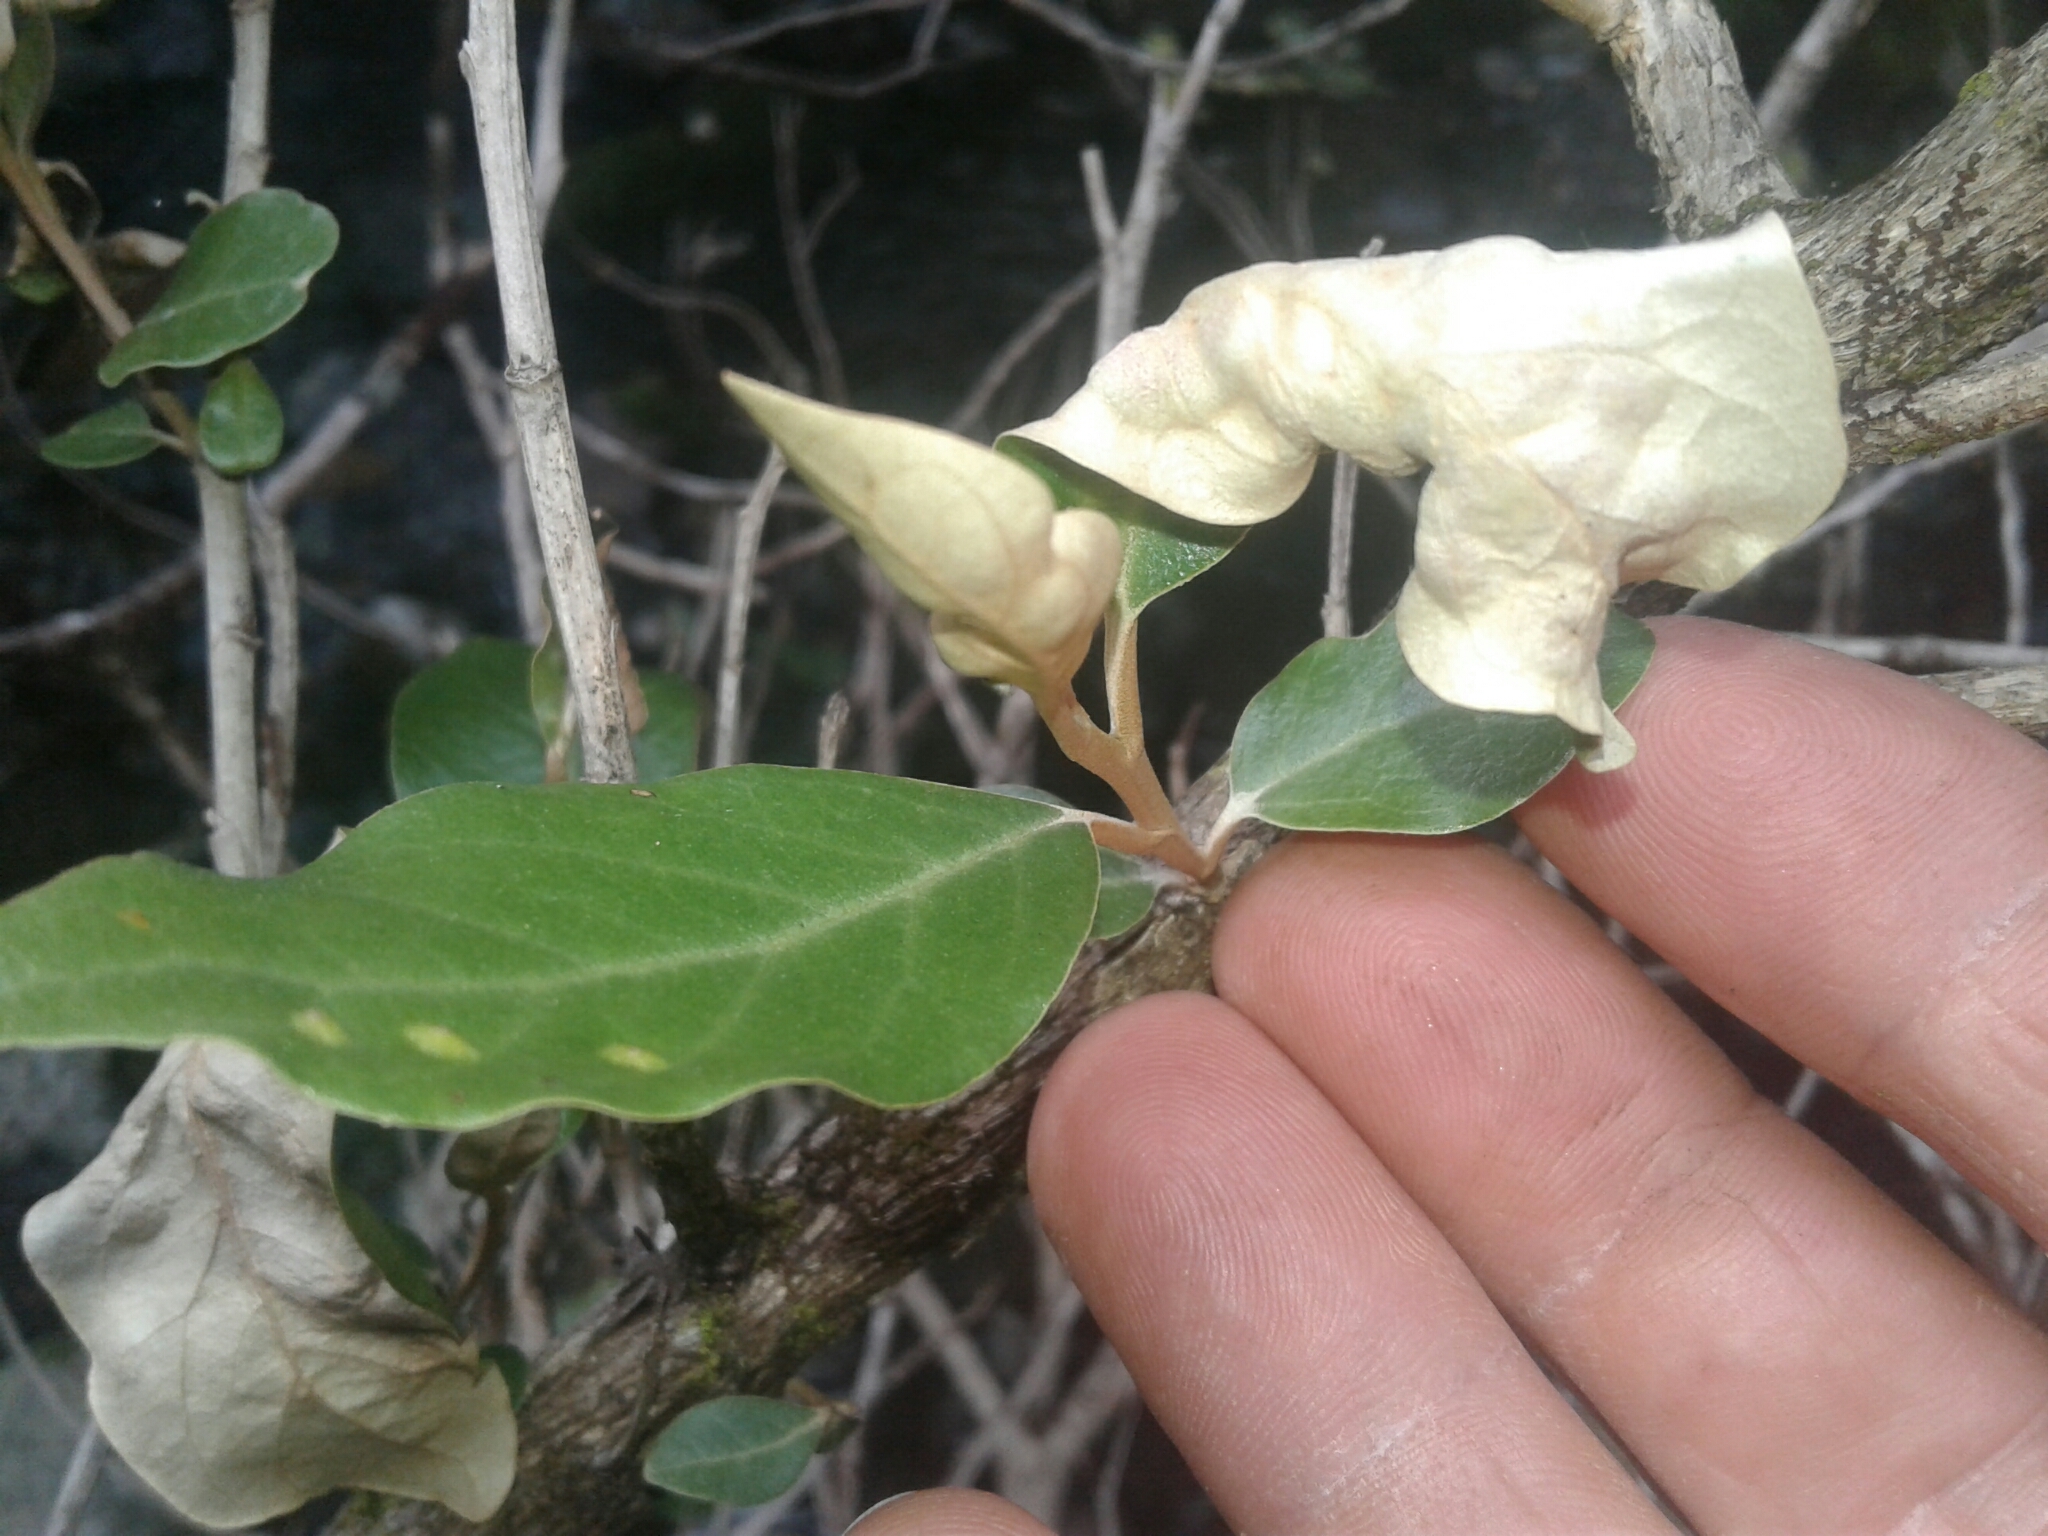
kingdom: Plantae
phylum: Tracheophyta
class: Magnoliopsida
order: Asterales
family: Asteraceae
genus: Olearia
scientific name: Olearia avicenniifolia
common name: Mangrove-leaf daisybush
